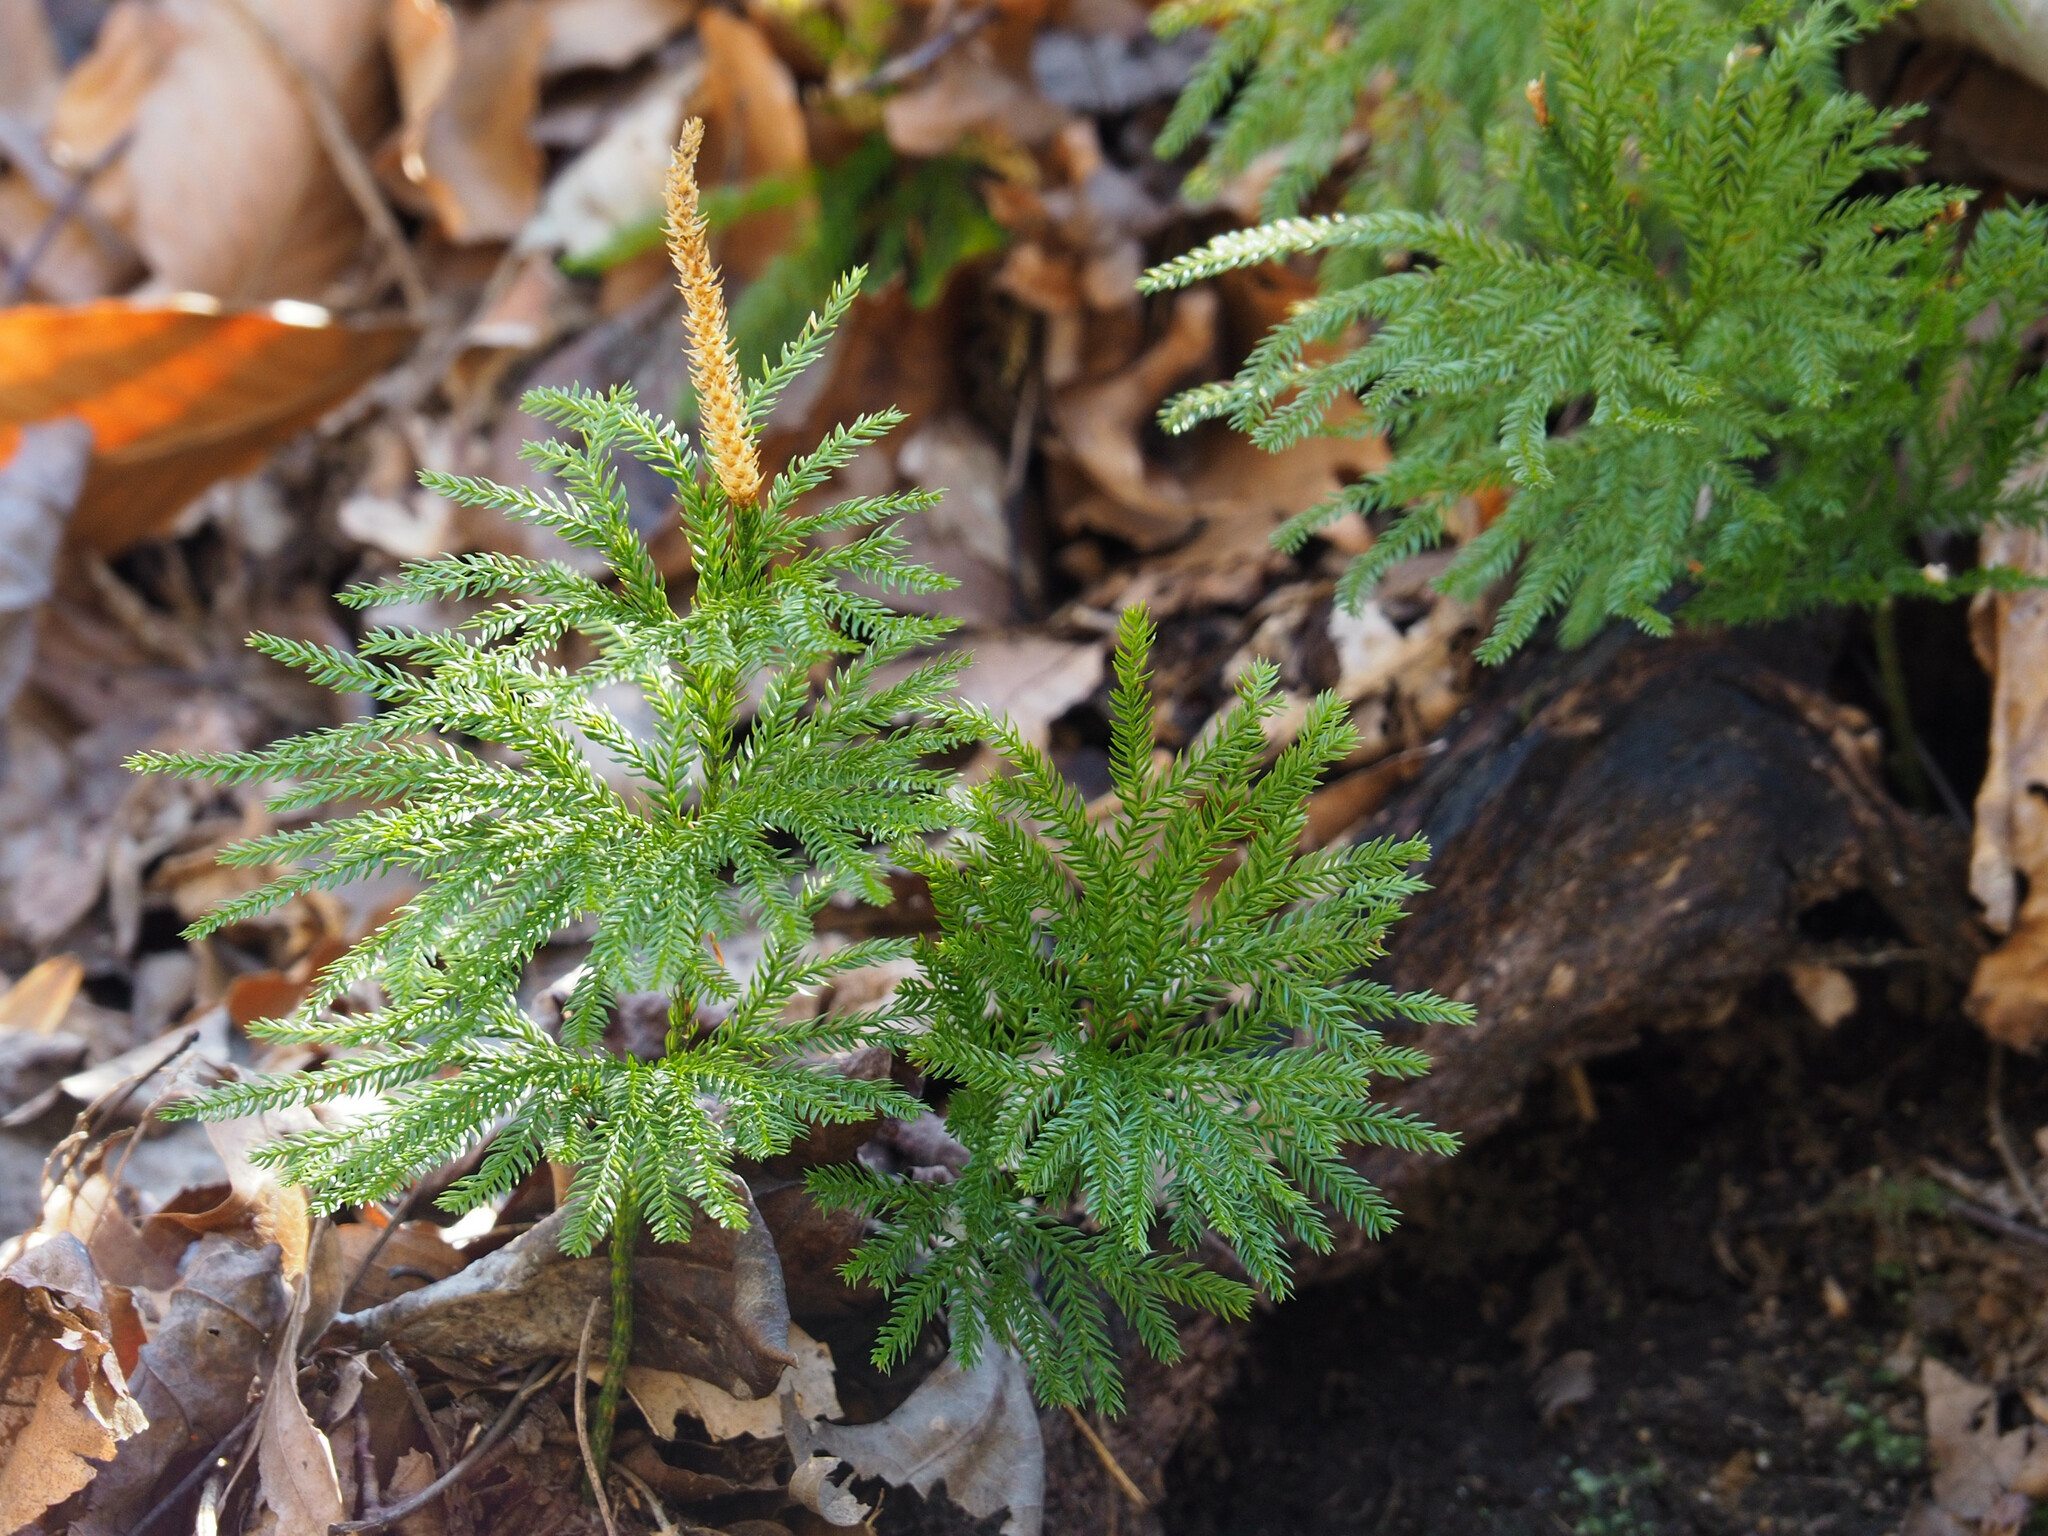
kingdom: Plantae
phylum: Tracheophyta
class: Lycopodiopsida
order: Lycopodiales
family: Lycopodiaceae
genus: Dendrolycopodium
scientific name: Dendrolycopodium obscurum
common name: Common ground-pine
